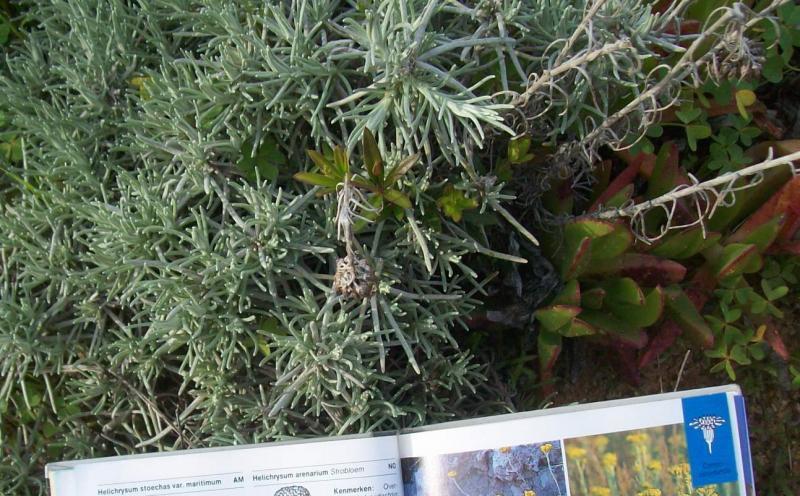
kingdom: Plantae
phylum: Tracheophyta
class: Magnoliopsida
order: Asterales
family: Asteraceae
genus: Helichrysum
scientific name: Helichrysum stoechas
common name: Goldilocks
